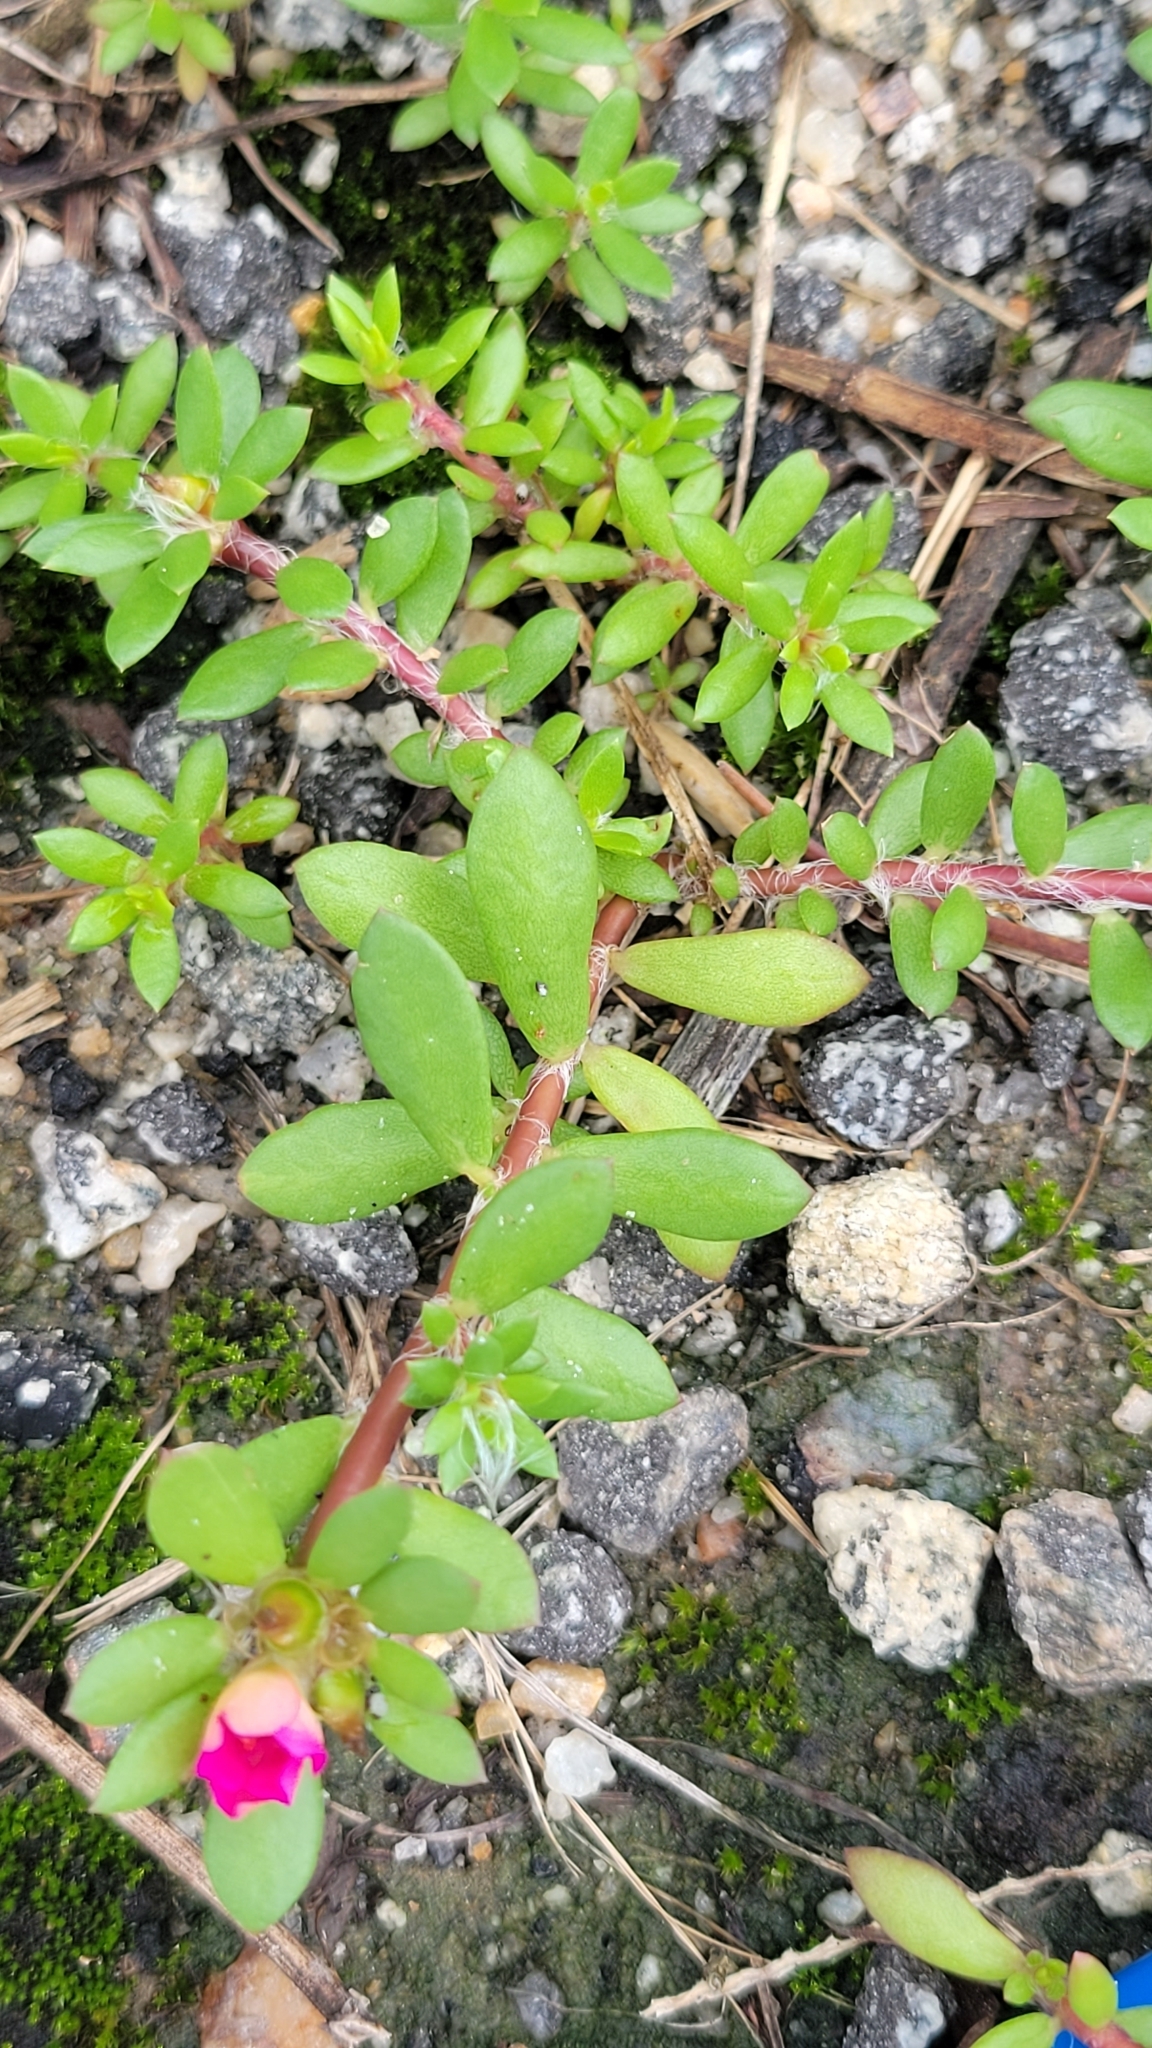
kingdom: Plantae
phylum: Tracheophyta
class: Magnoliopsida
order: Caryophyllales
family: Portulacaceae
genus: Portulaca
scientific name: Portulaca amilis
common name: Paraguayan purslane
